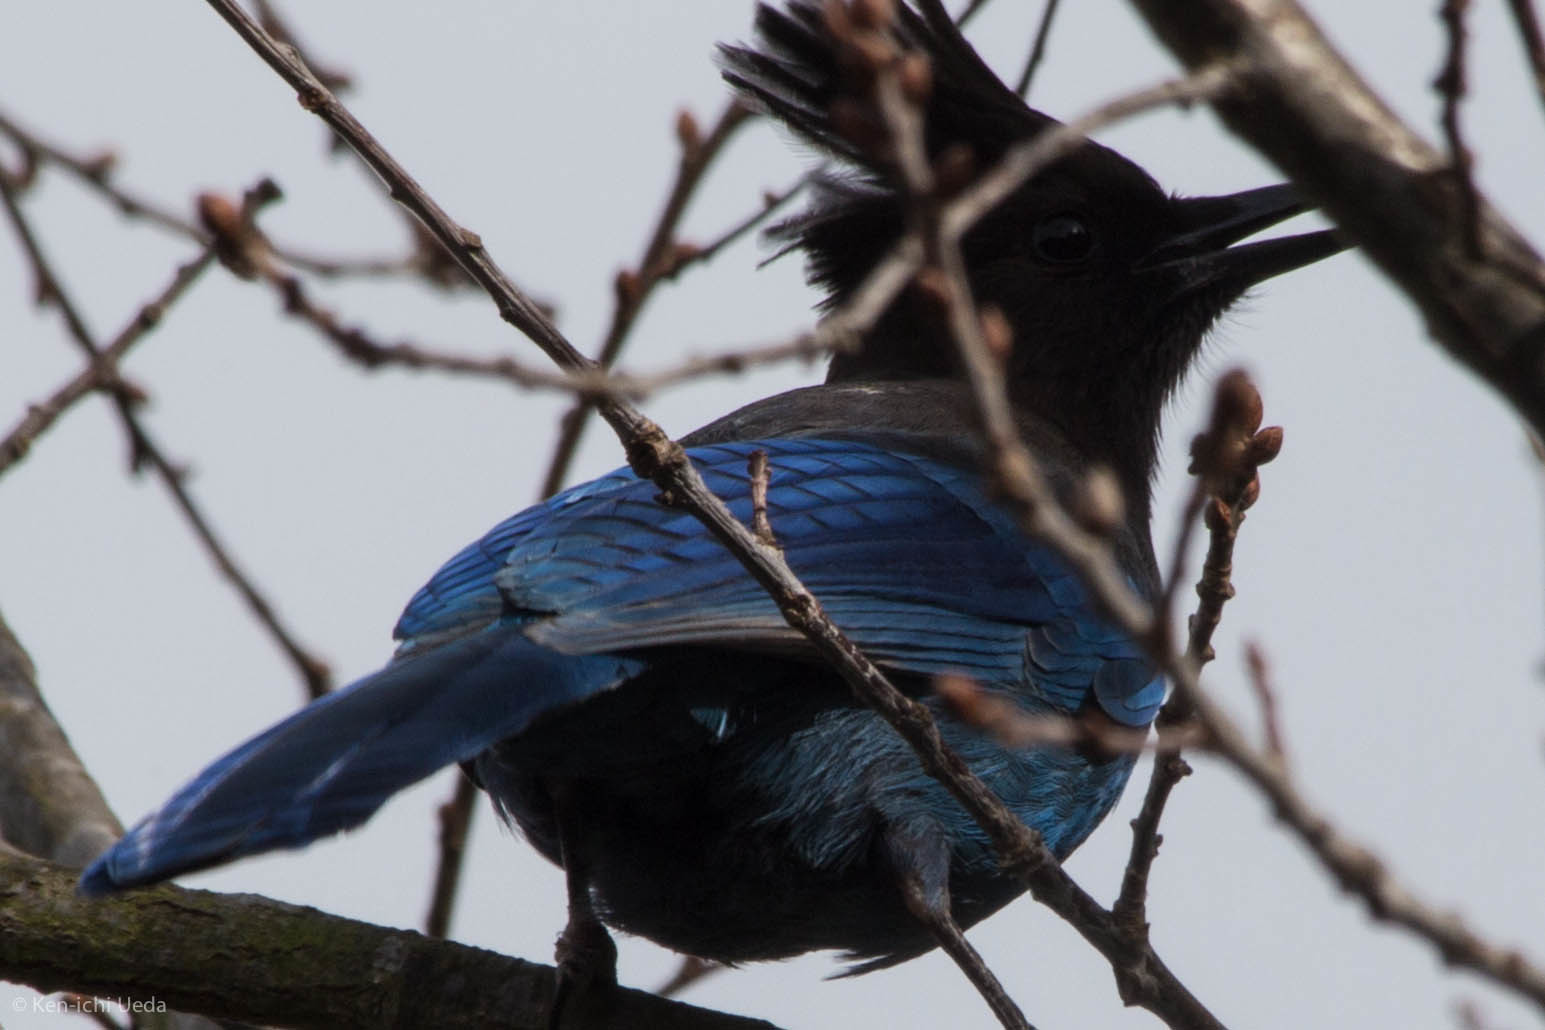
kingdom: Animalia
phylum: Chordata
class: Aves
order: Passeriformes
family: Corvidae
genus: Cyanocitta
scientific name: Cyanocitta stelleri
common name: Steller's jay
